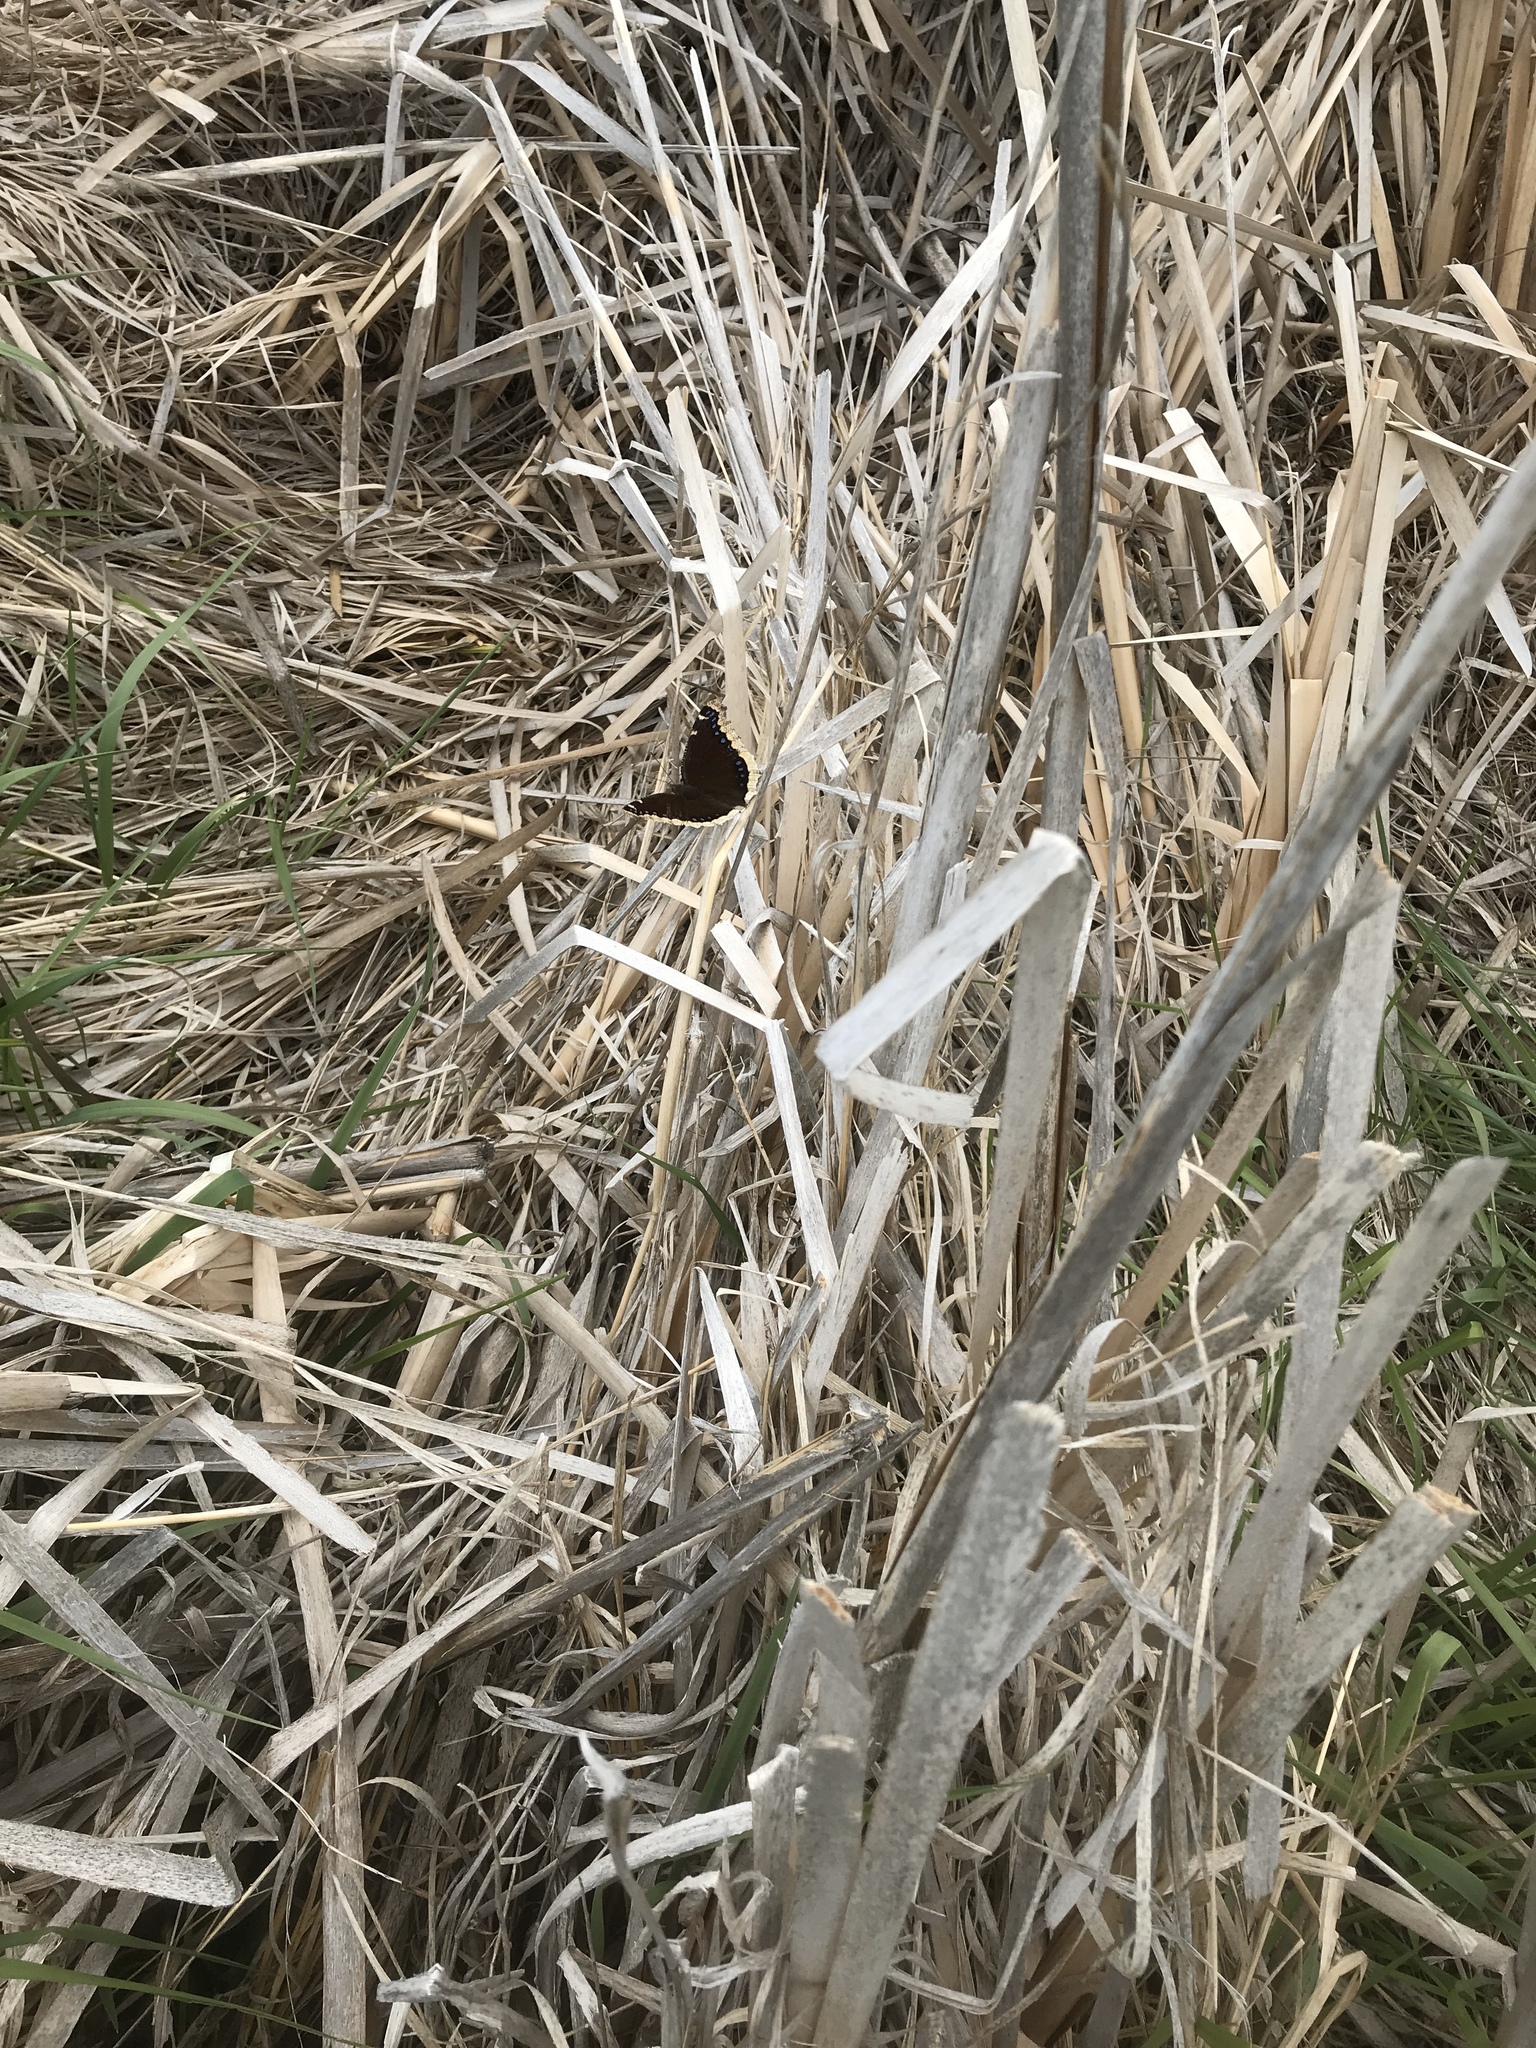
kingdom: Animalia
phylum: Arthropoda
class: Insecta
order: Lepidoptera
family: Nymphalidae
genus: Nymphalis
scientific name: Nymphalis antiopa
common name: Camberwell beauty
